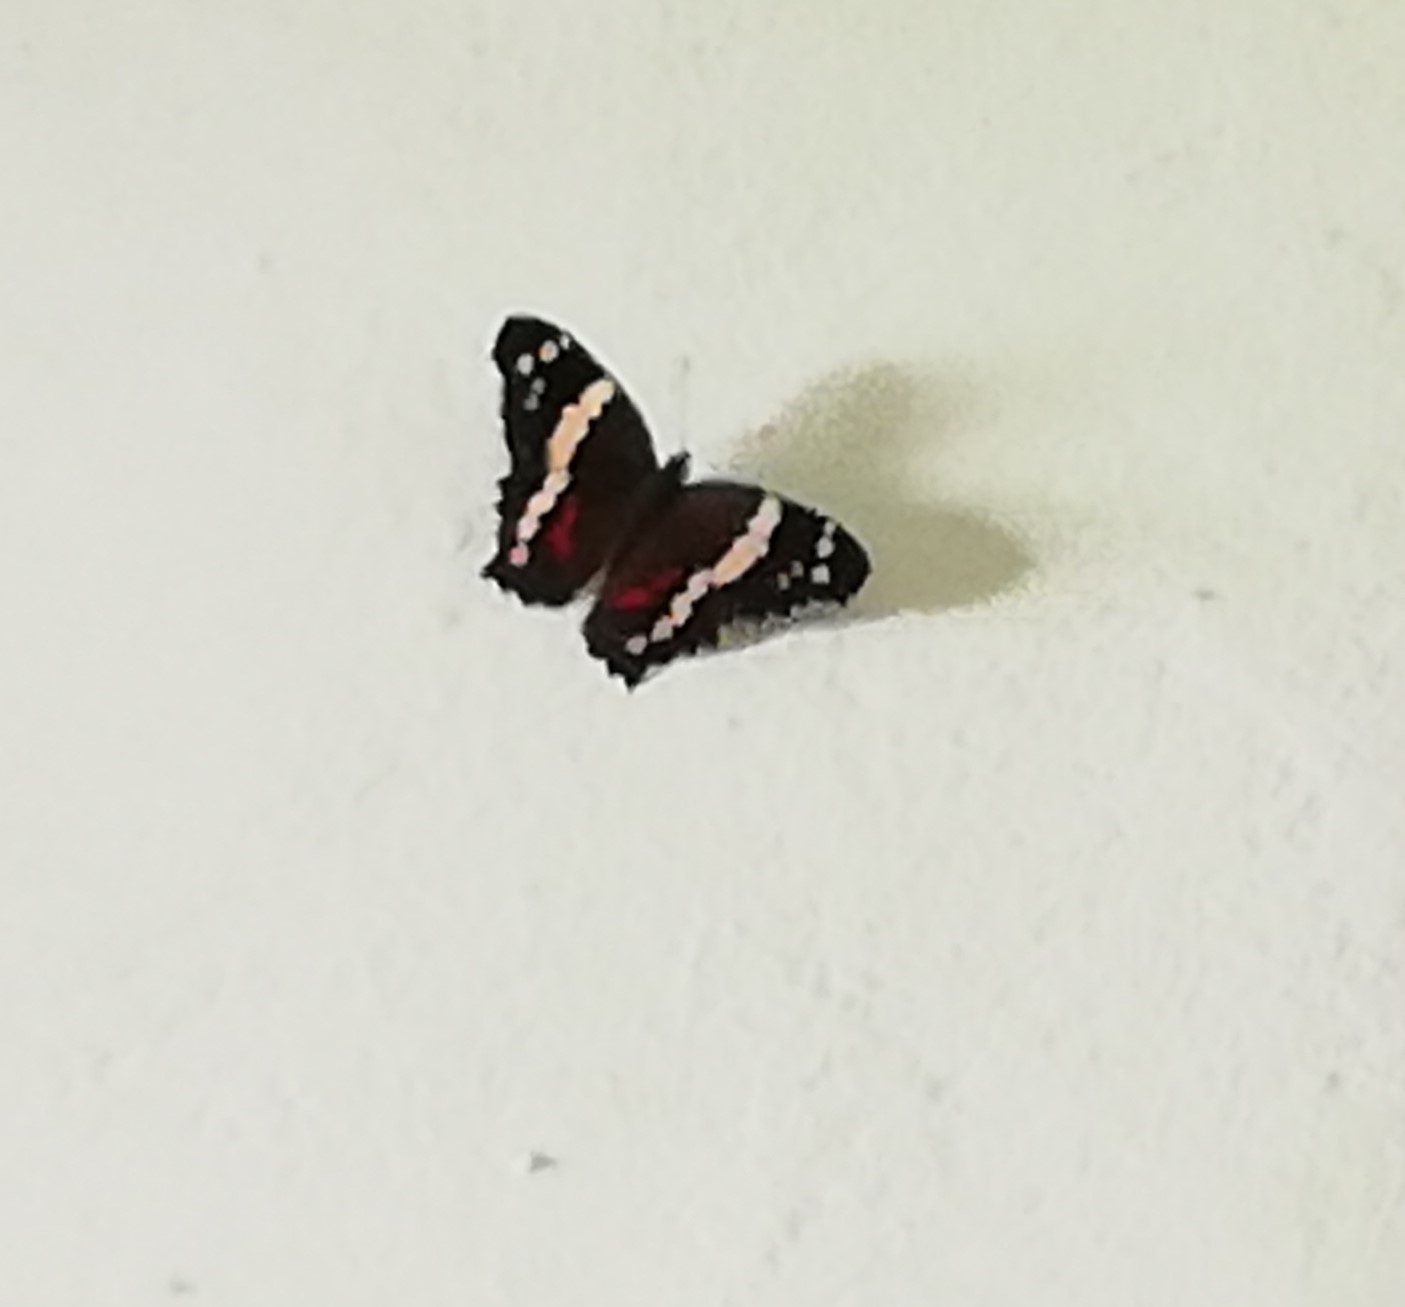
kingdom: Animalia
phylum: Arthropoda
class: Insecta
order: Lepidoptera
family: Nymphalidae
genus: Anartia
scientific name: Anartia fatima
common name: Banded peacock
